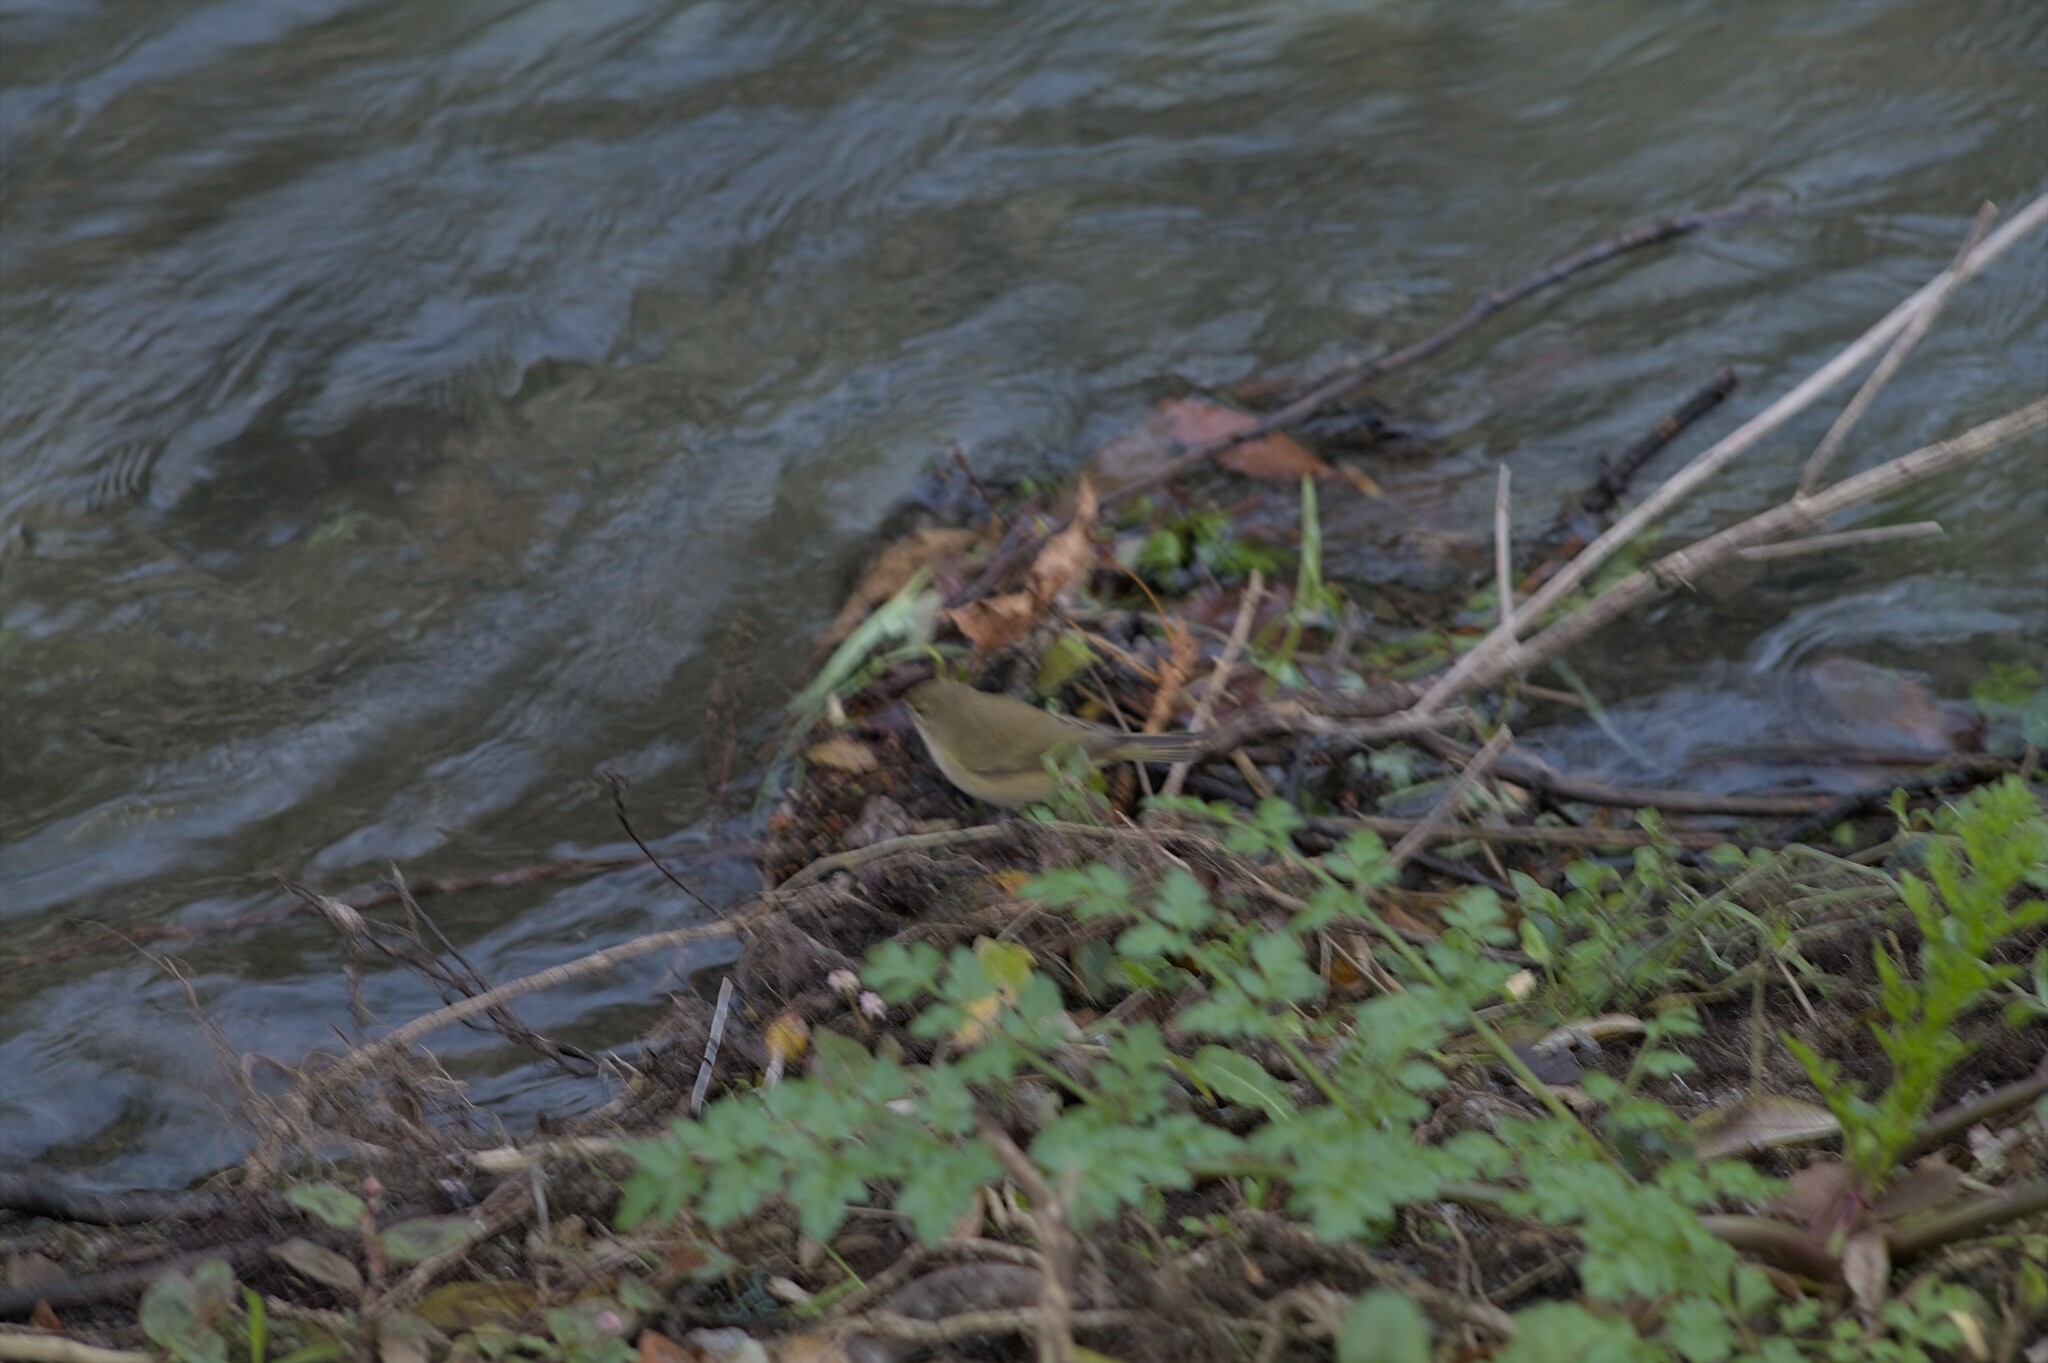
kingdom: Animalia
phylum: Chordata
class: Aves
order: Passeriformes
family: Phylloscopidae
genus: Phylloscopus
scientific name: Phylloscopus collybita
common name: Common chiffchaff
